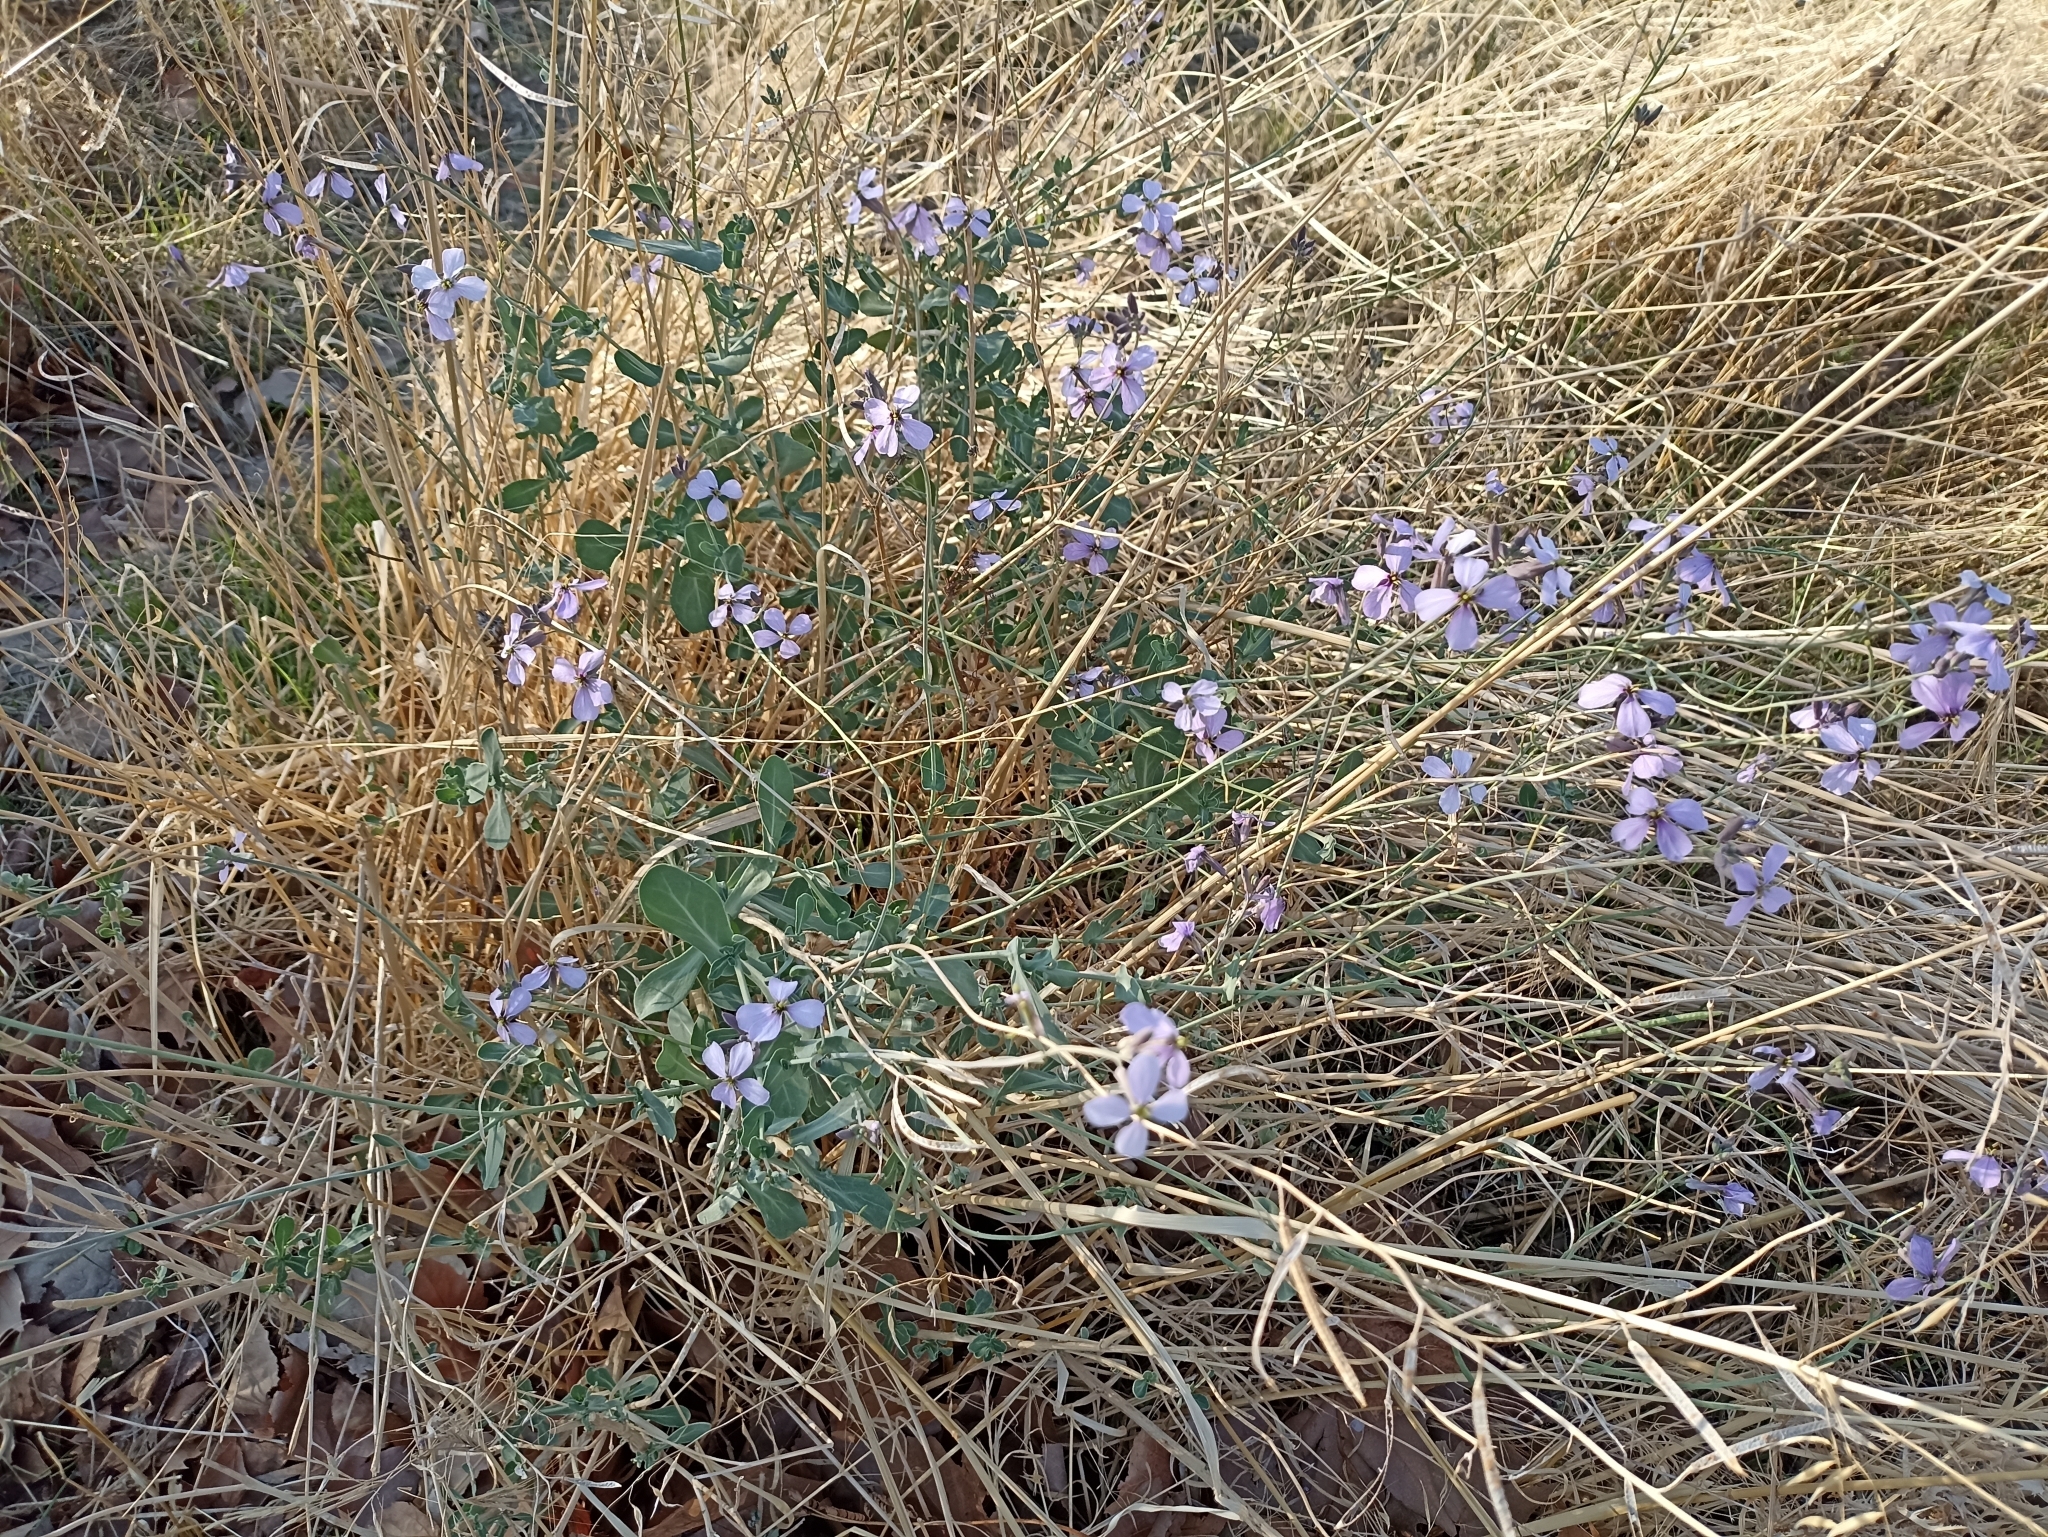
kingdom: Plantae
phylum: Tracheophyta
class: Magnoliopsida
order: Brassicales
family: Brassicaceae
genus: Moricandia
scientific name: Moricandia arvensis
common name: Purple mistress
